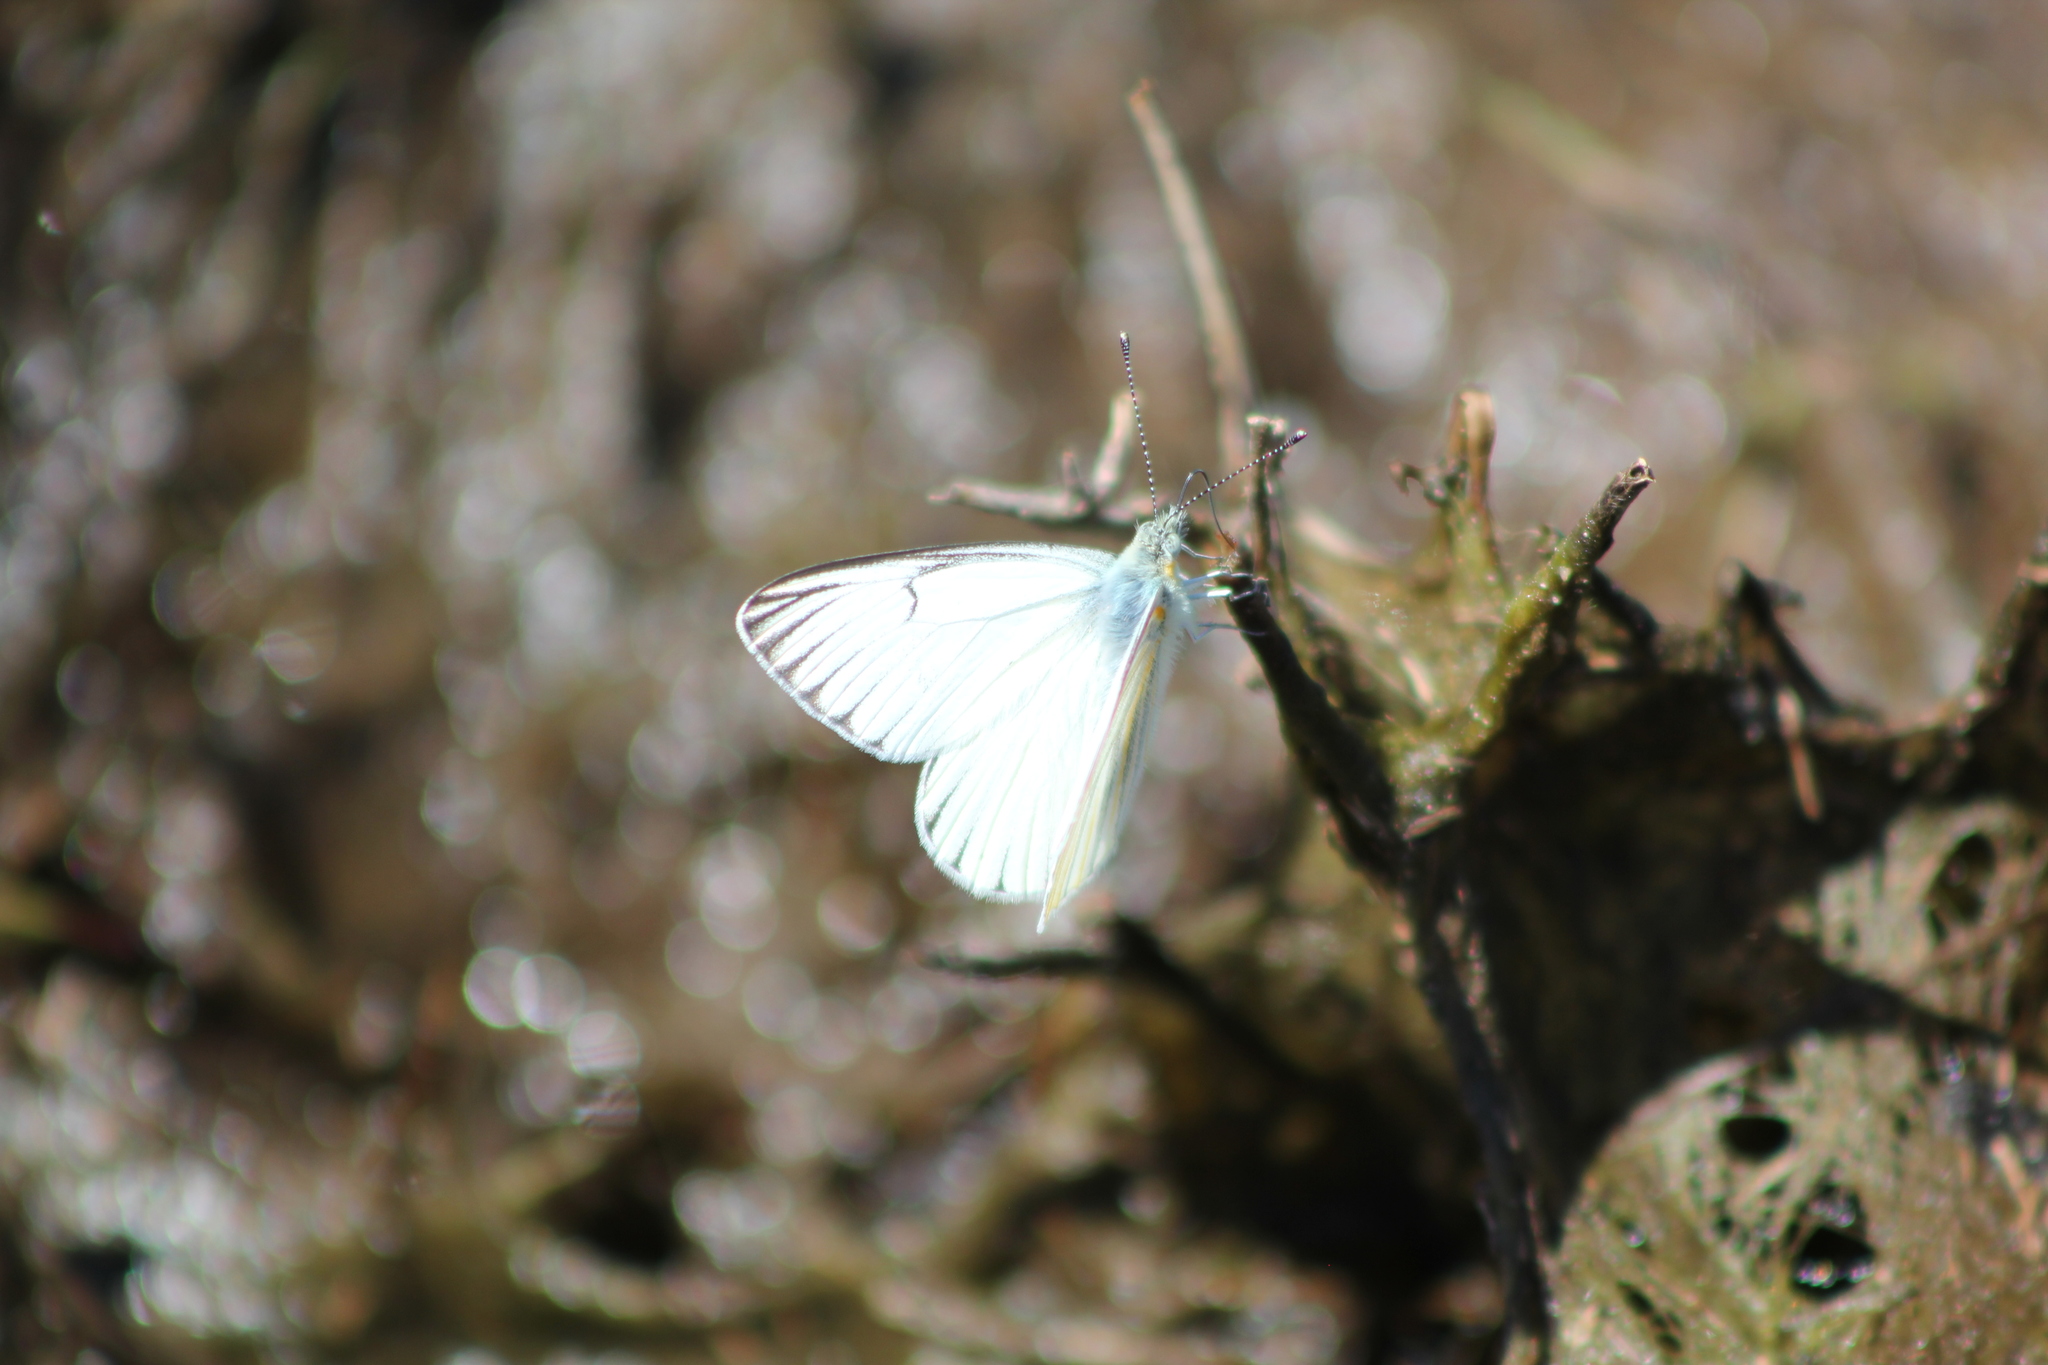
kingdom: Animalia
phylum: Arthropoda
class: Insecta
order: Lepidoptera
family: Pieridae
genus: Tatochila
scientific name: Tatochila stigmadice
